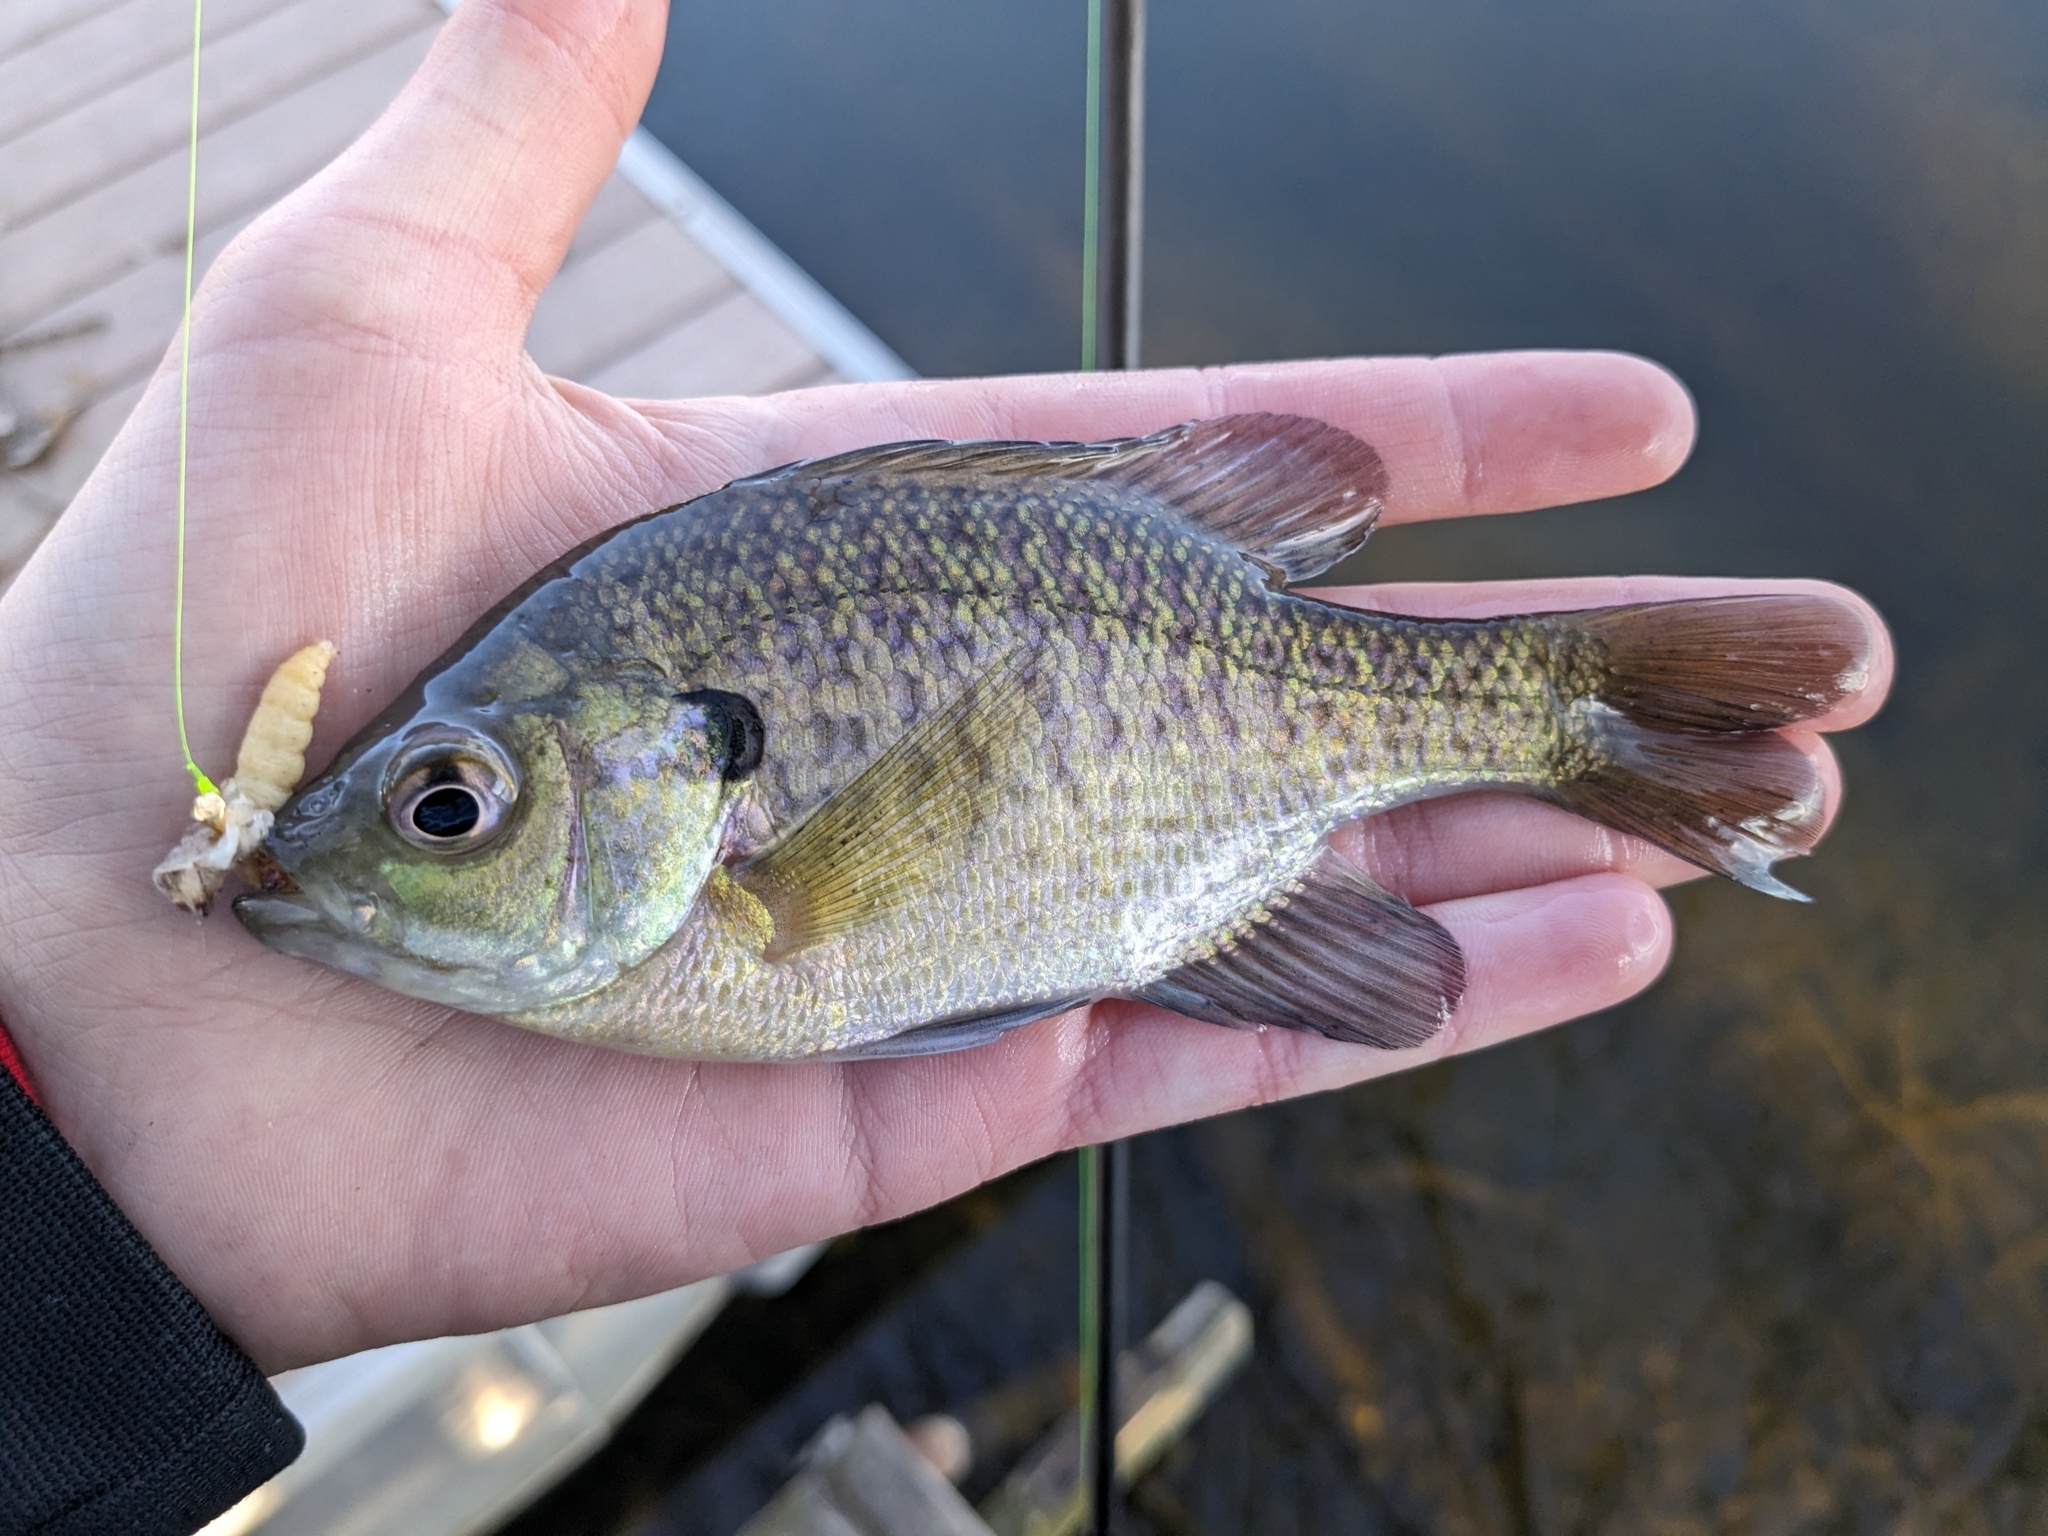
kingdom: Animalia
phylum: Chordata
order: Perciformes
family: Centrarchidae
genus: Lepomis
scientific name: Lepomis macrochirus
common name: Bluegill
